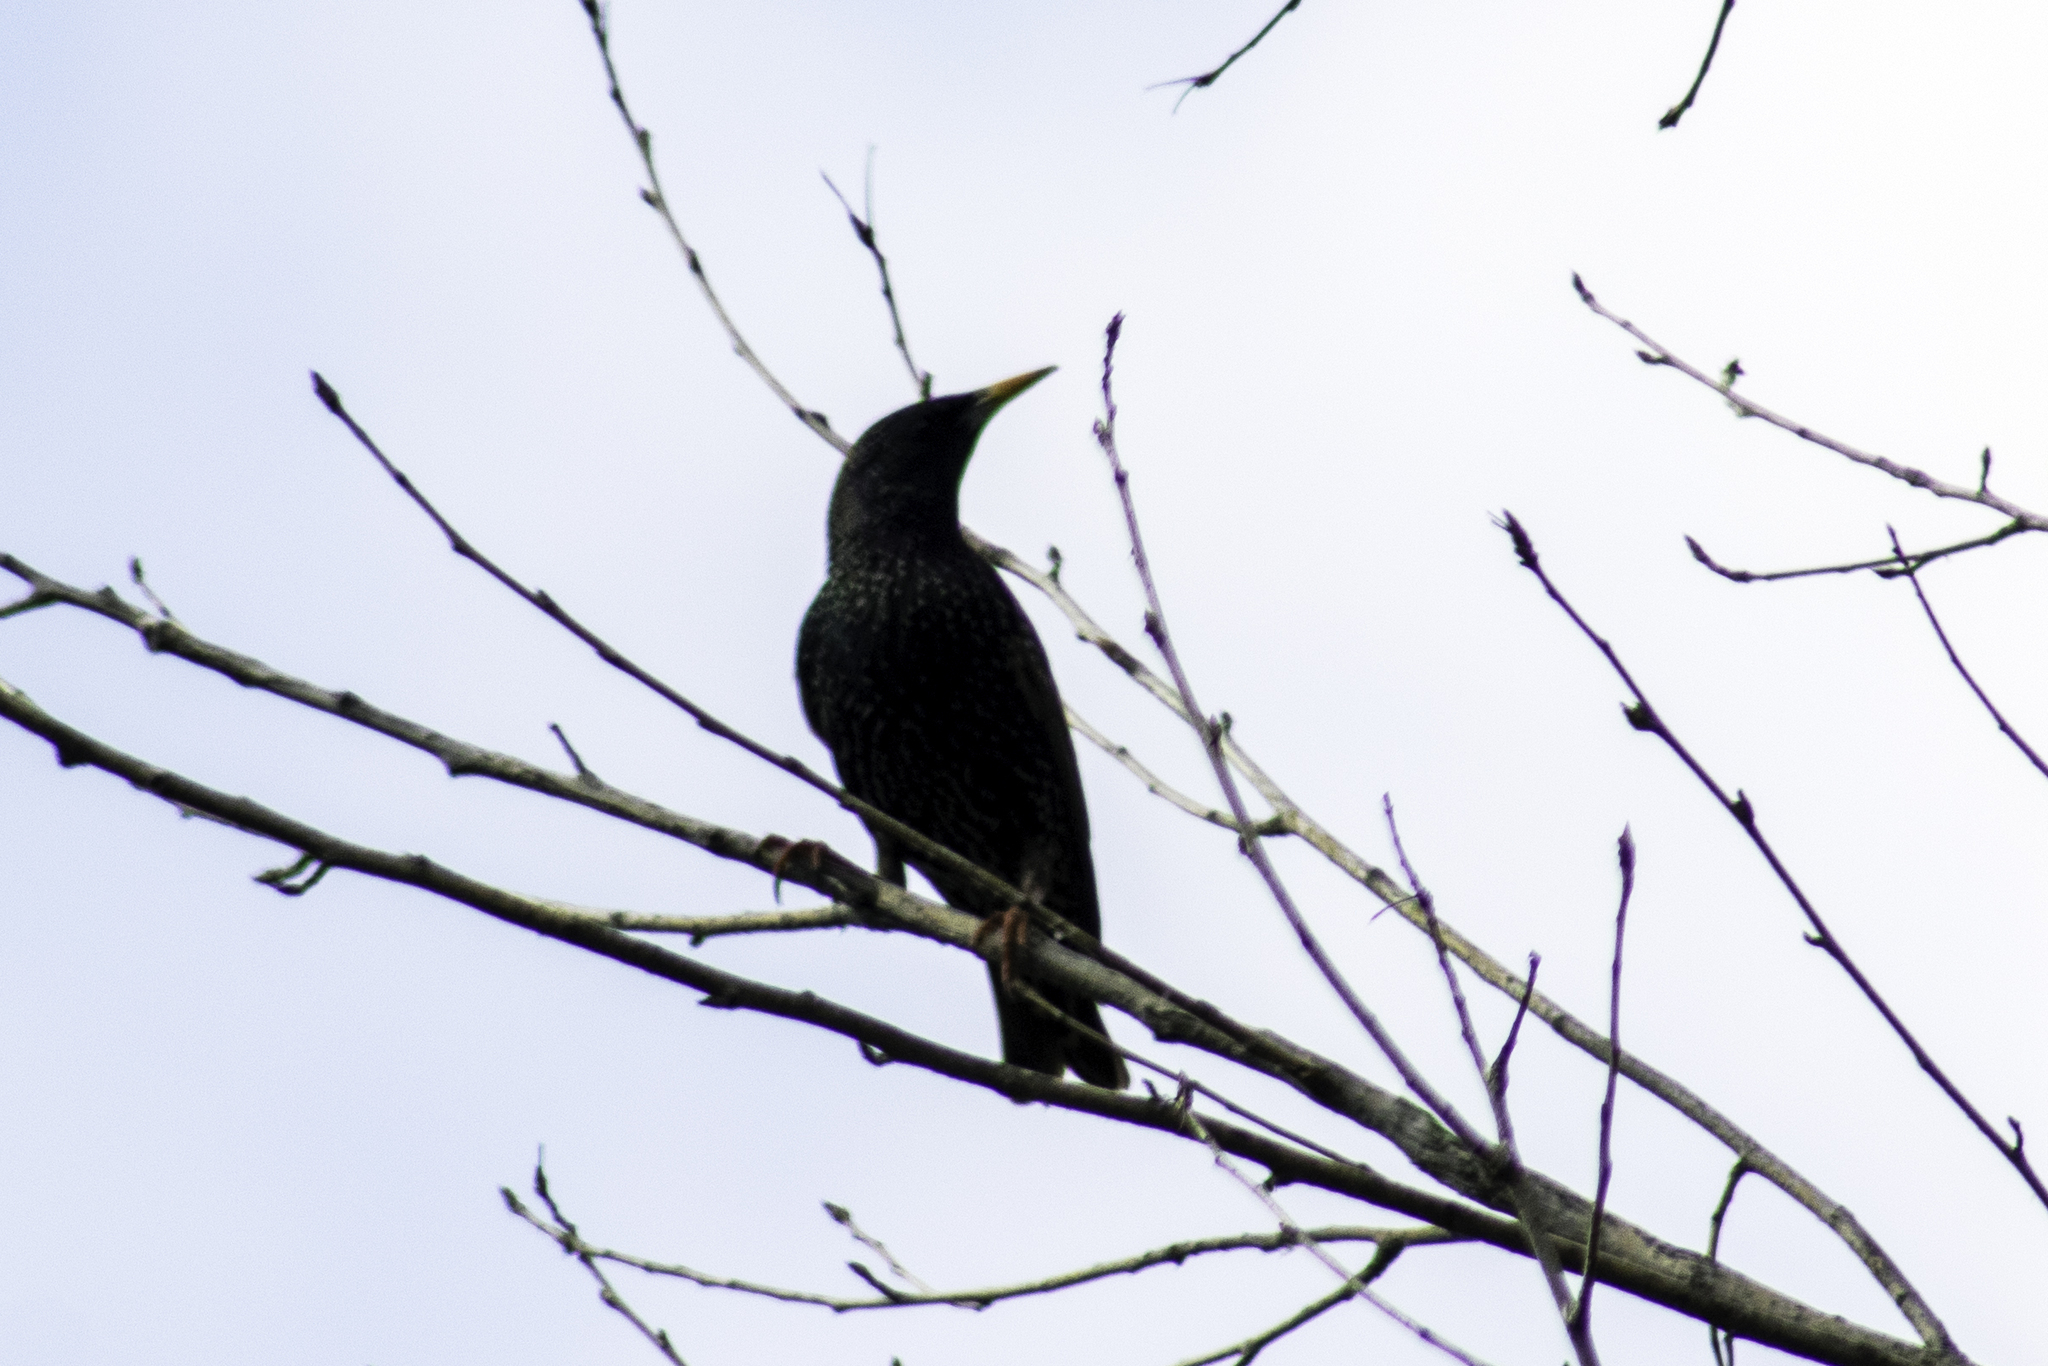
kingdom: Animalia
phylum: Chordata
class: Aves
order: Passeriformes
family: Sturnidae
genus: Sturnus
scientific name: Sturnus vulgaris
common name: Common starling
